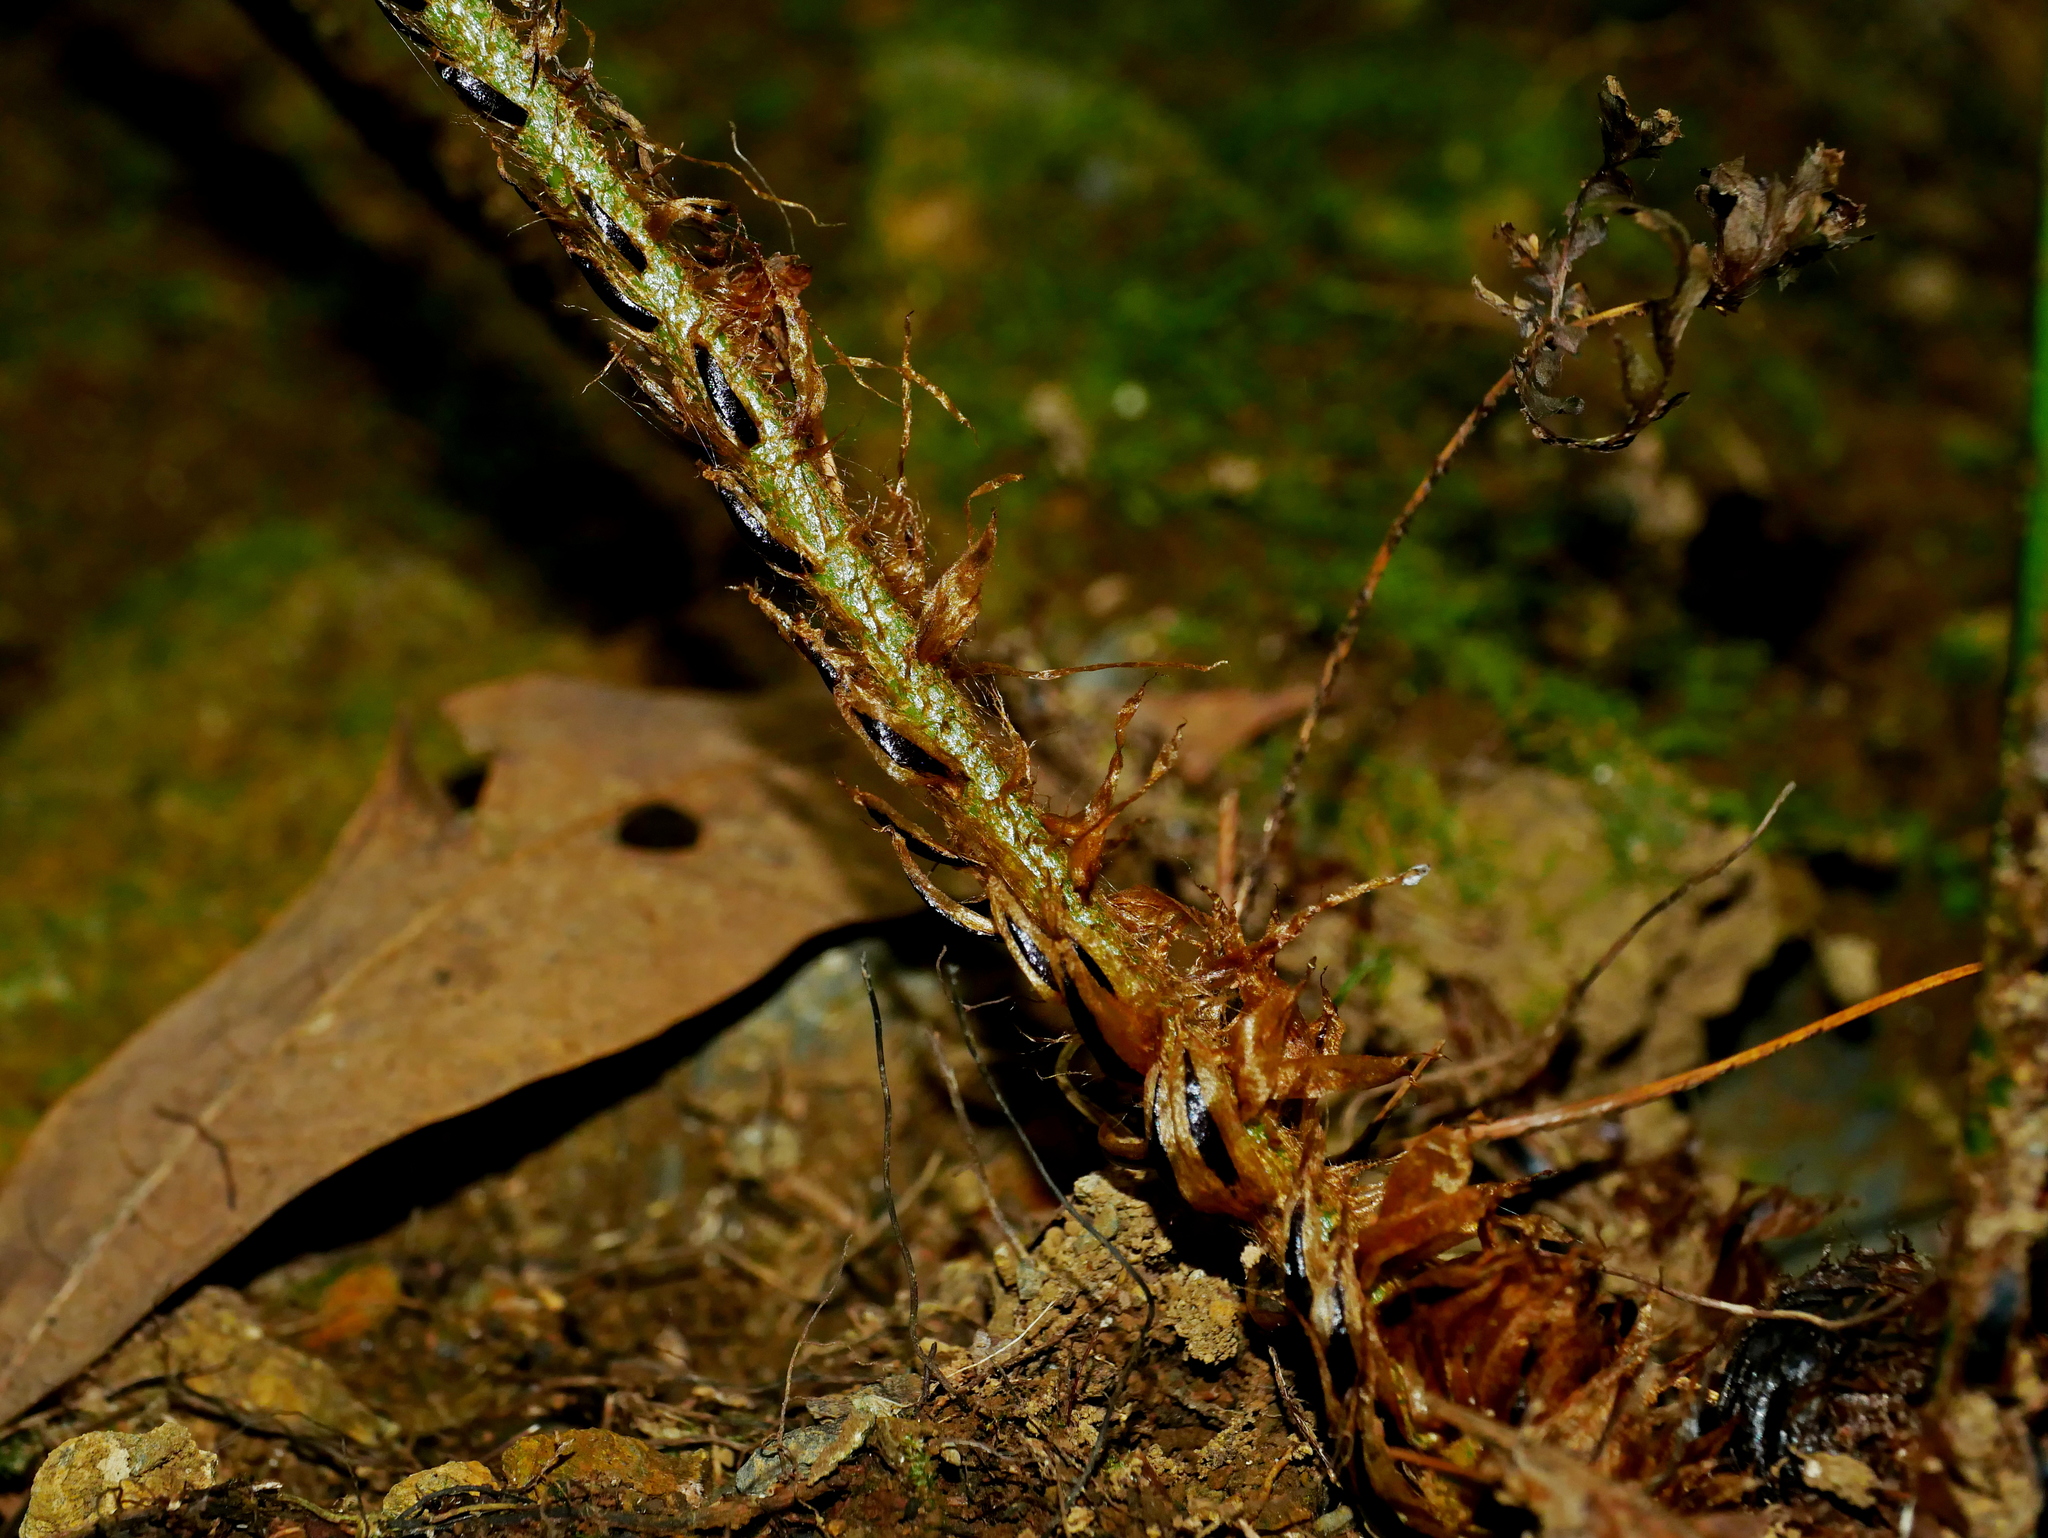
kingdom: Plantae
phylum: Tracheophyta
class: Polypodiopsida
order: Polypodiales
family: Dryopteridaceae
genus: Polystichum
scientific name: Polystichum biaristatum
